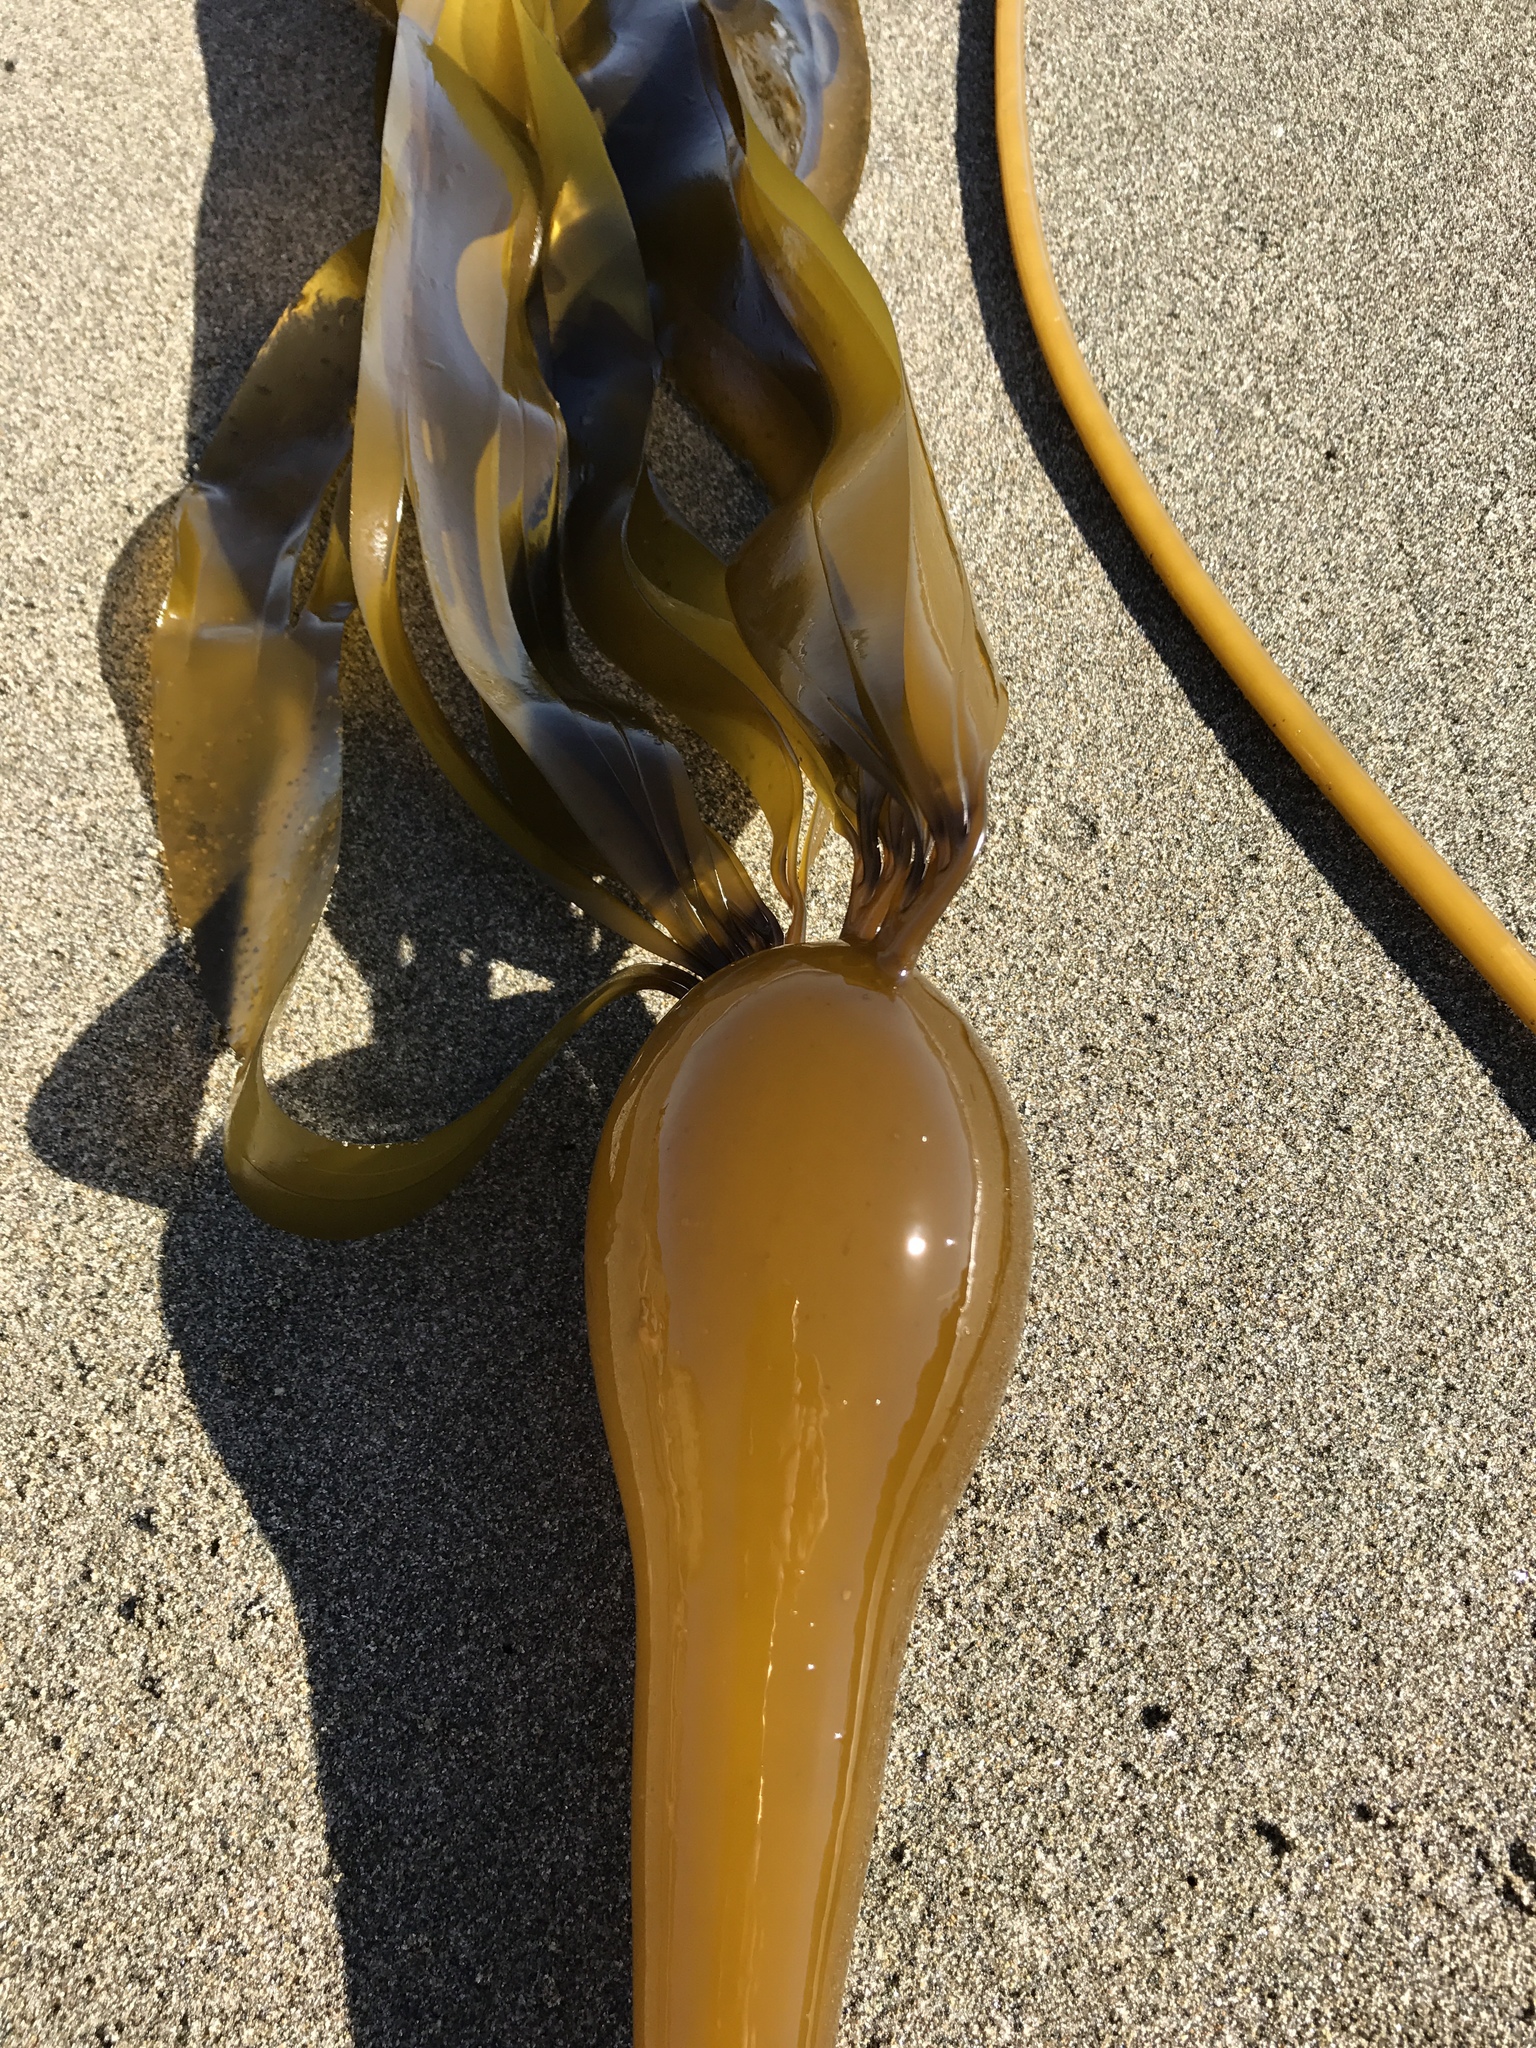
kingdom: Chromista
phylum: Ochrophyta
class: Phaeophyceae
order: Laminariales
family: Laminariaceae
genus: Nereocystis
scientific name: Nereocystis luetkeana
